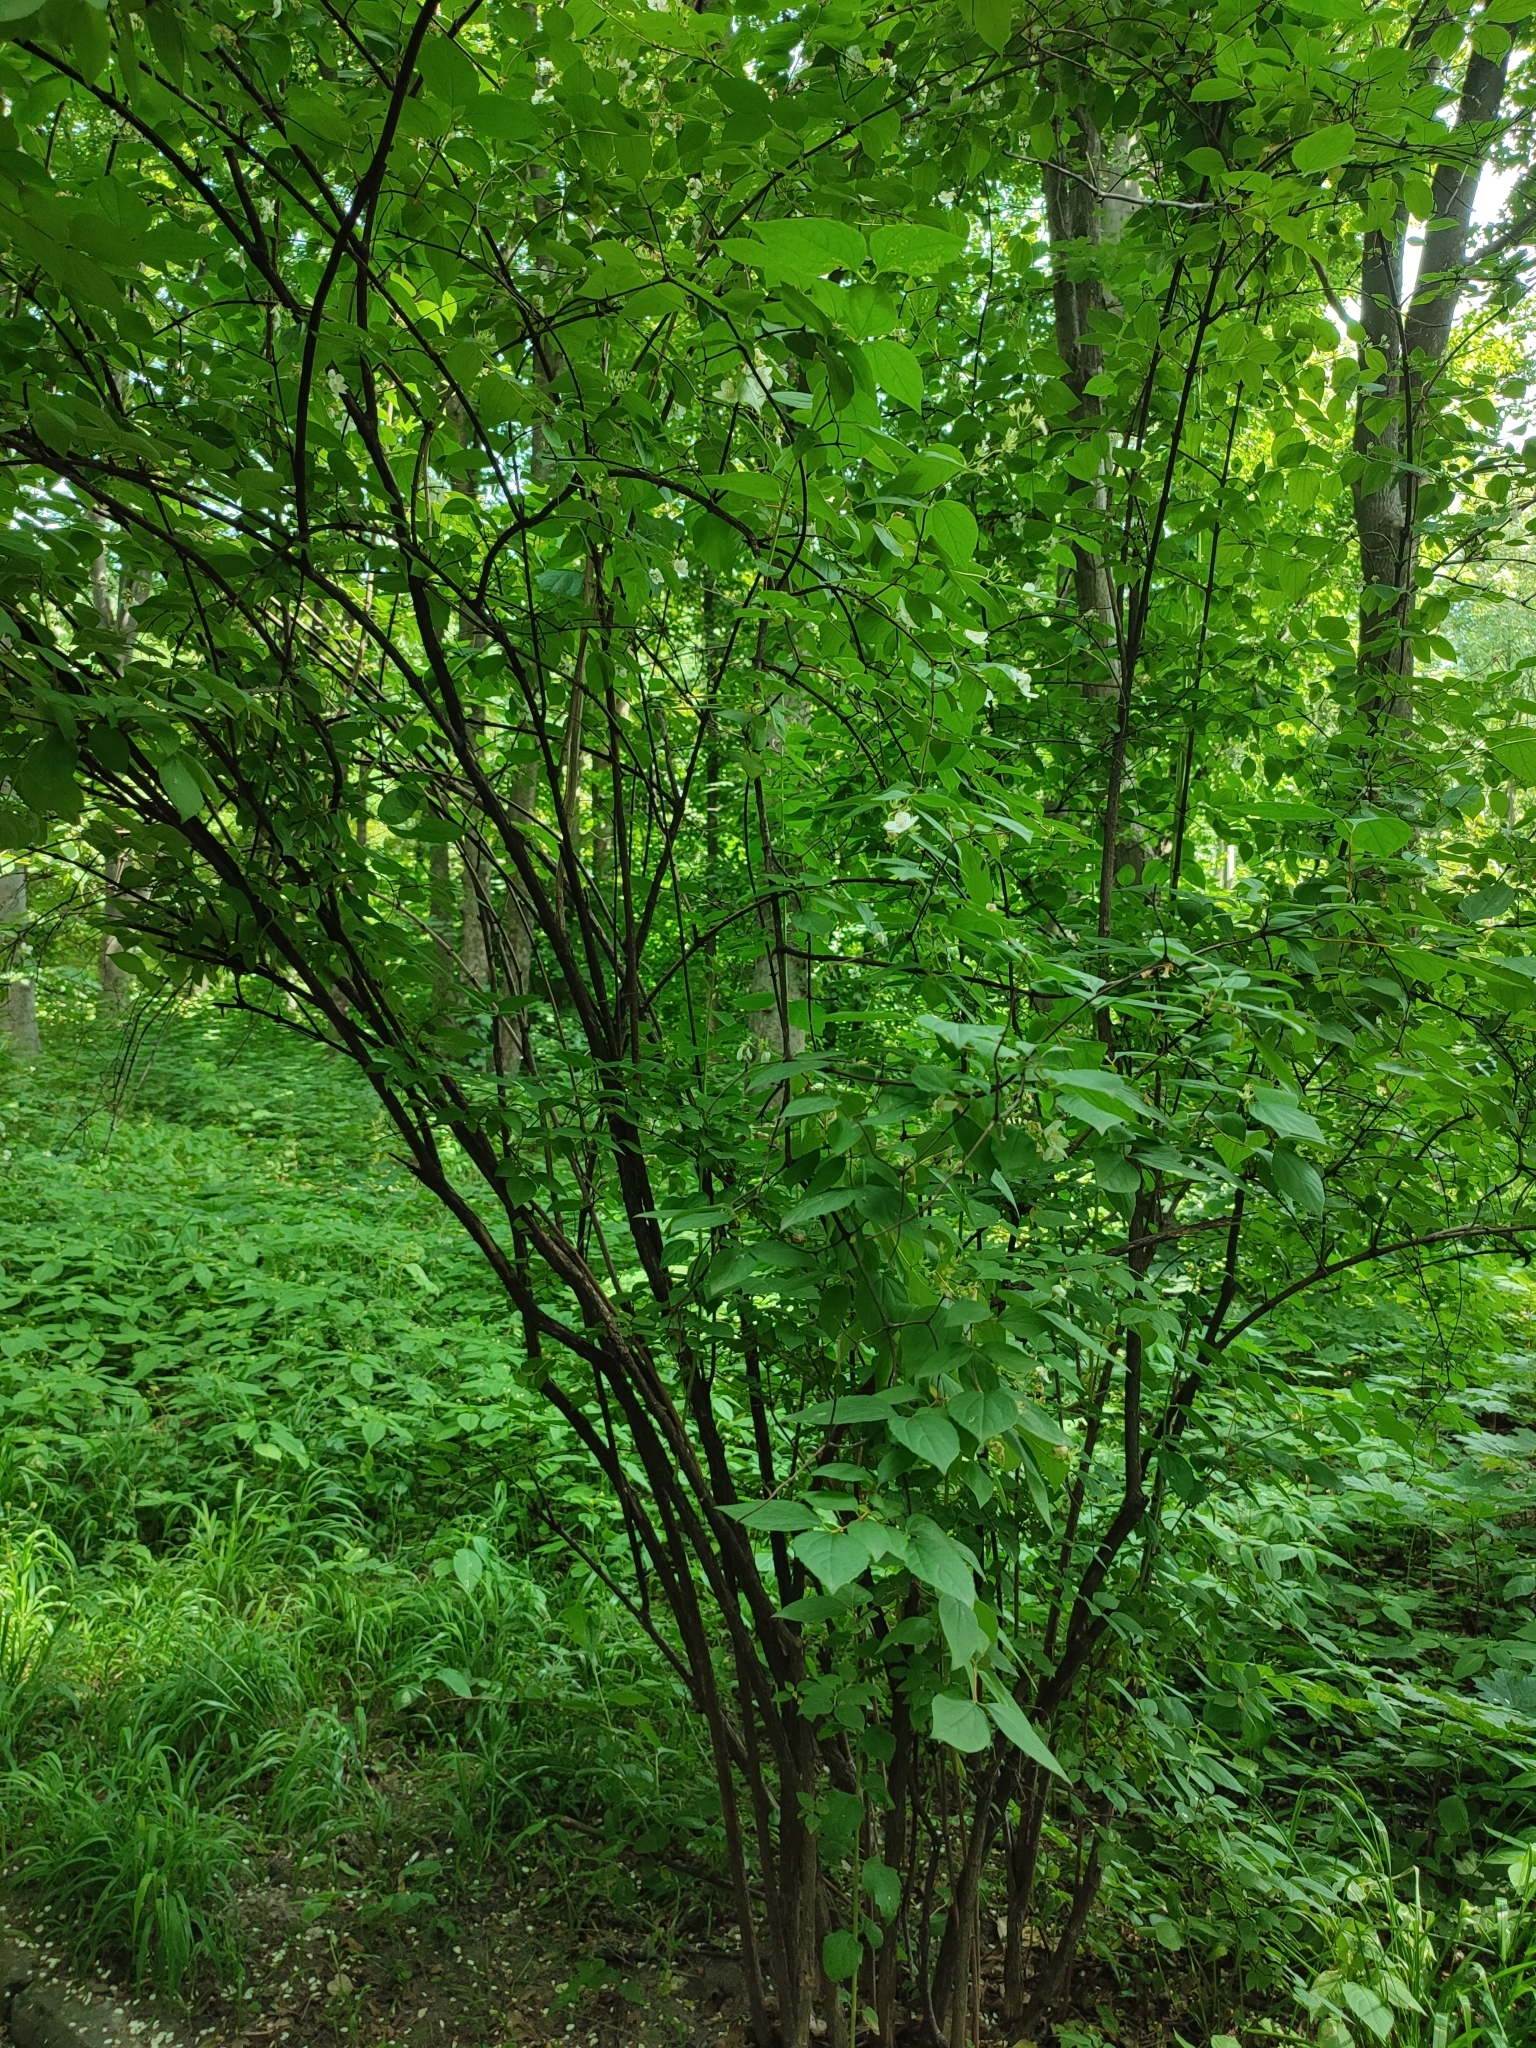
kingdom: Plantae
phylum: Tracheophyta
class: Magnoliopsida
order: Cornales
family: Hydrangeaceae
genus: Philadelphus
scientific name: Philadelphus coronarius
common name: Mock orange
